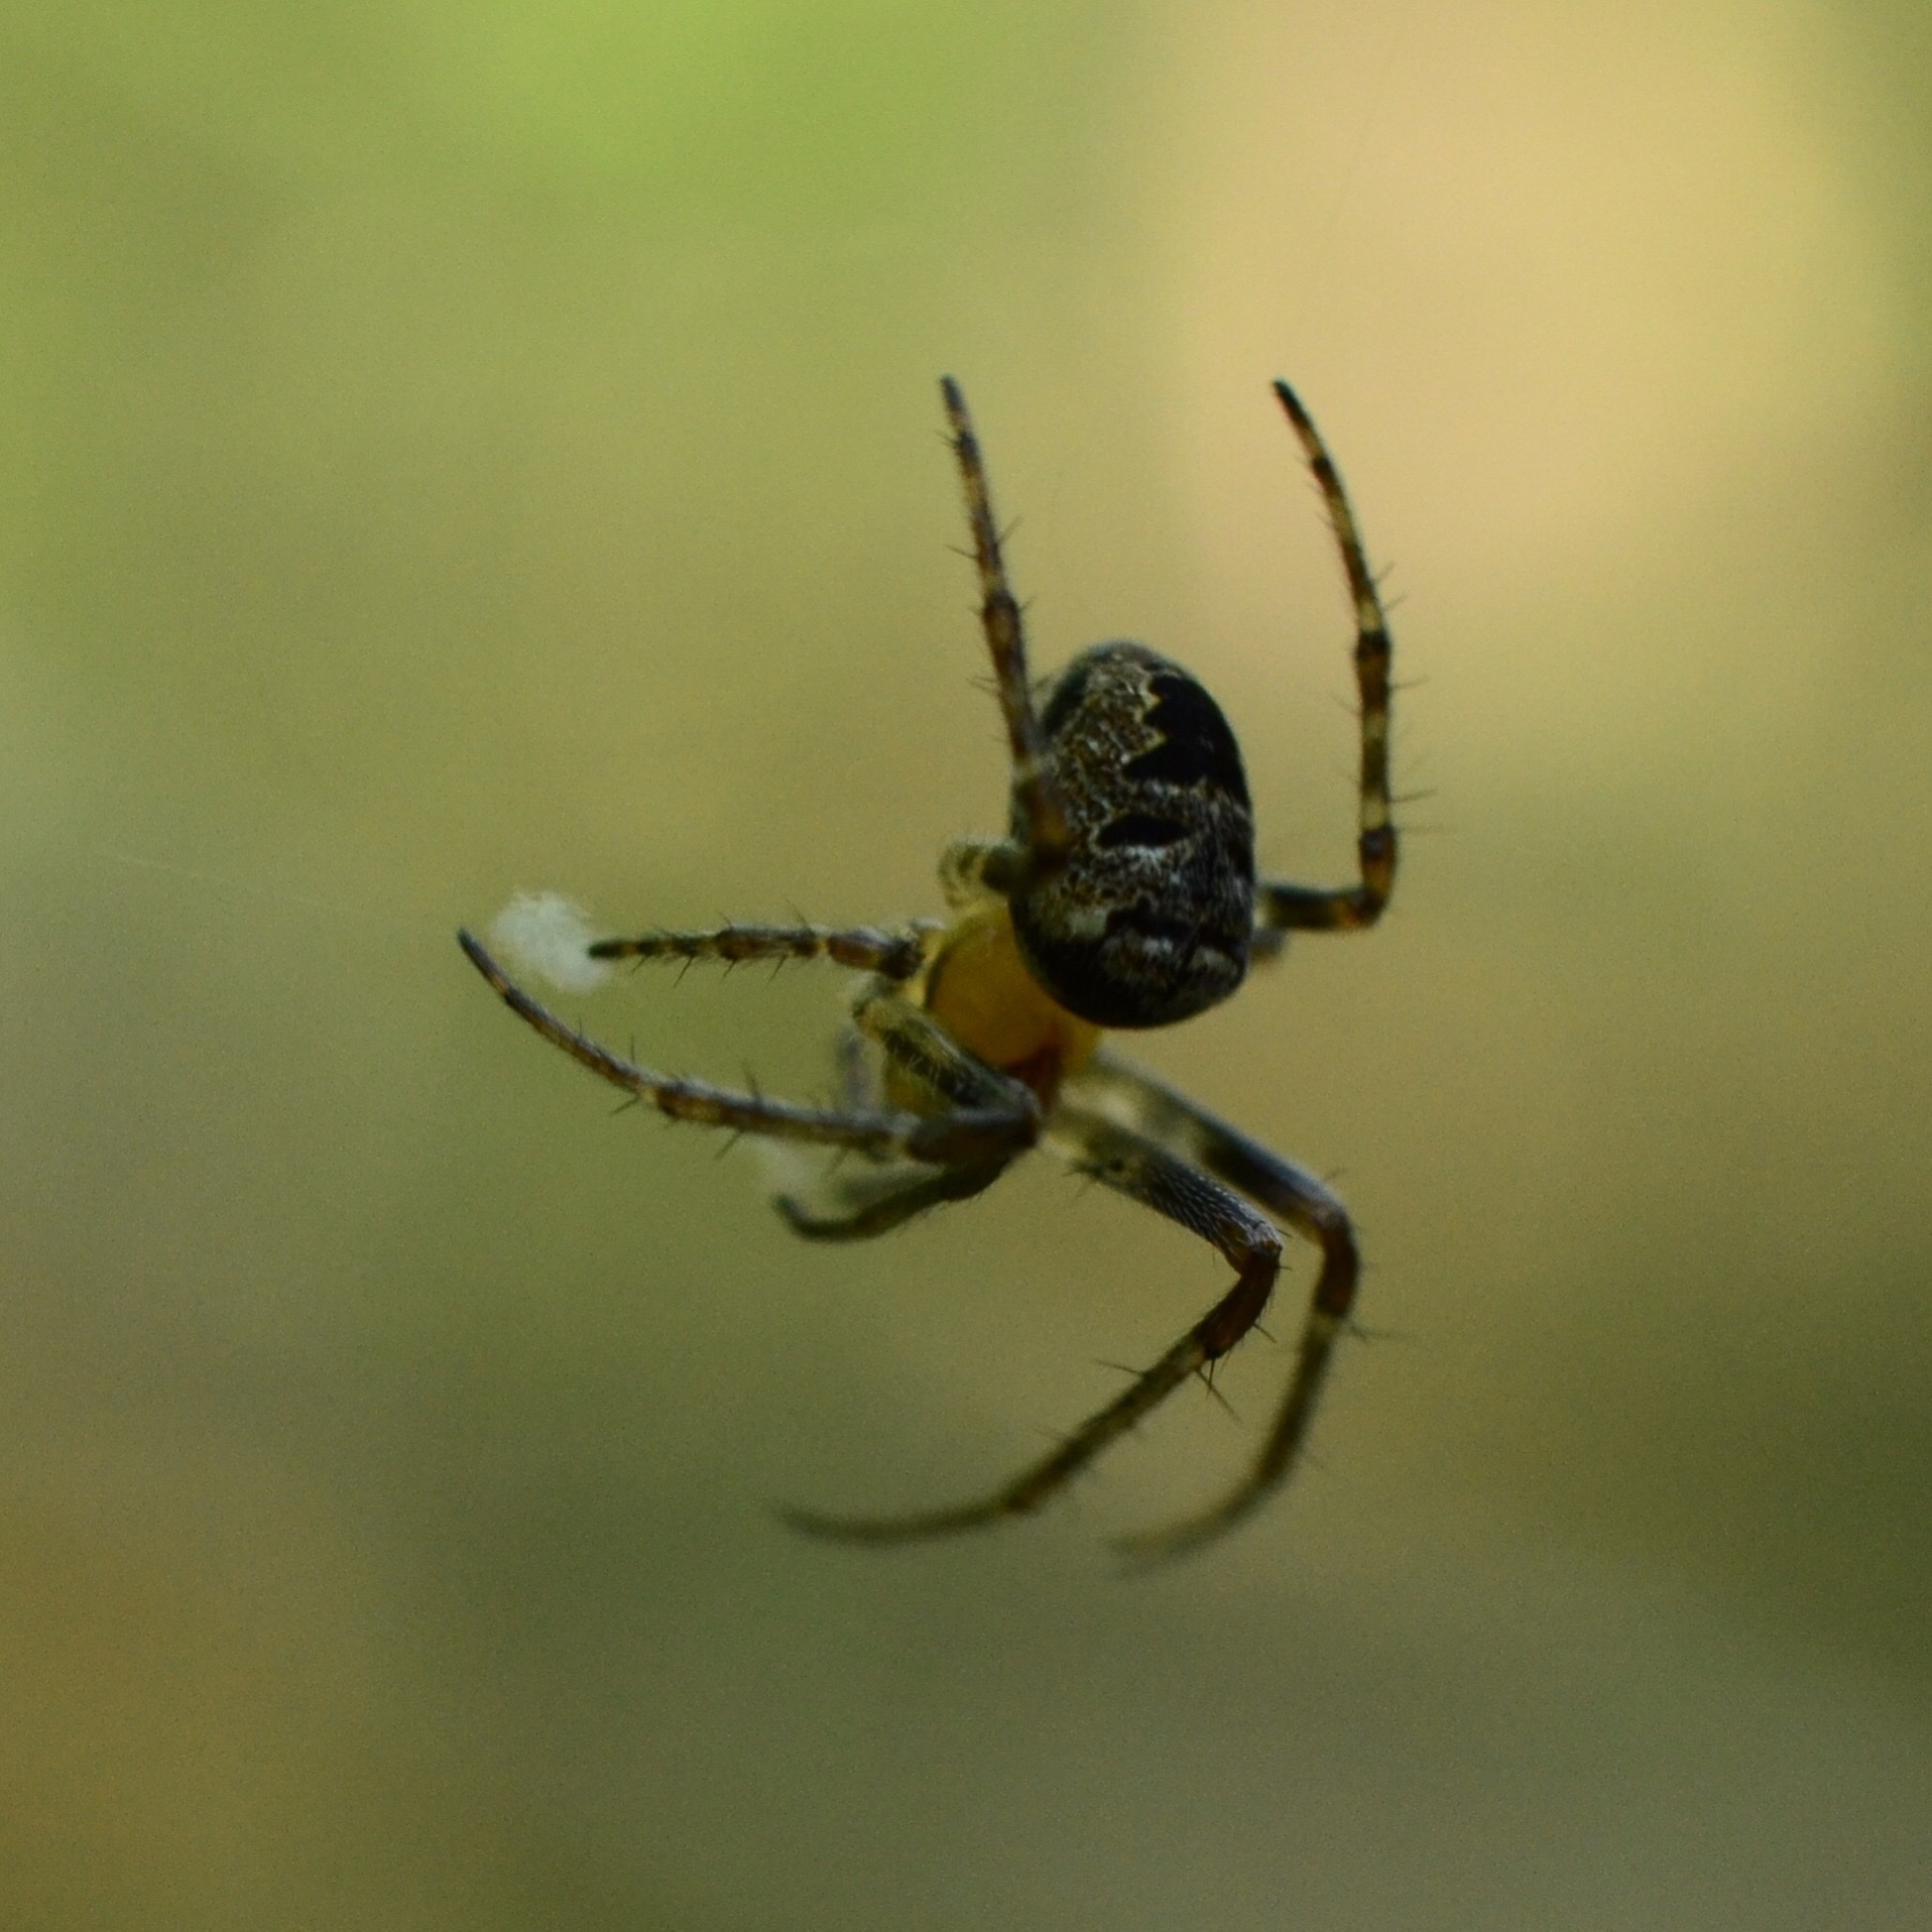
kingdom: Animalia
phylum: Arthropoda
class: Arachnida
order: Araneae
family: Araneidae
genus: Zilla
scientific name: Zilla diodia
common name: Zilla diodia
